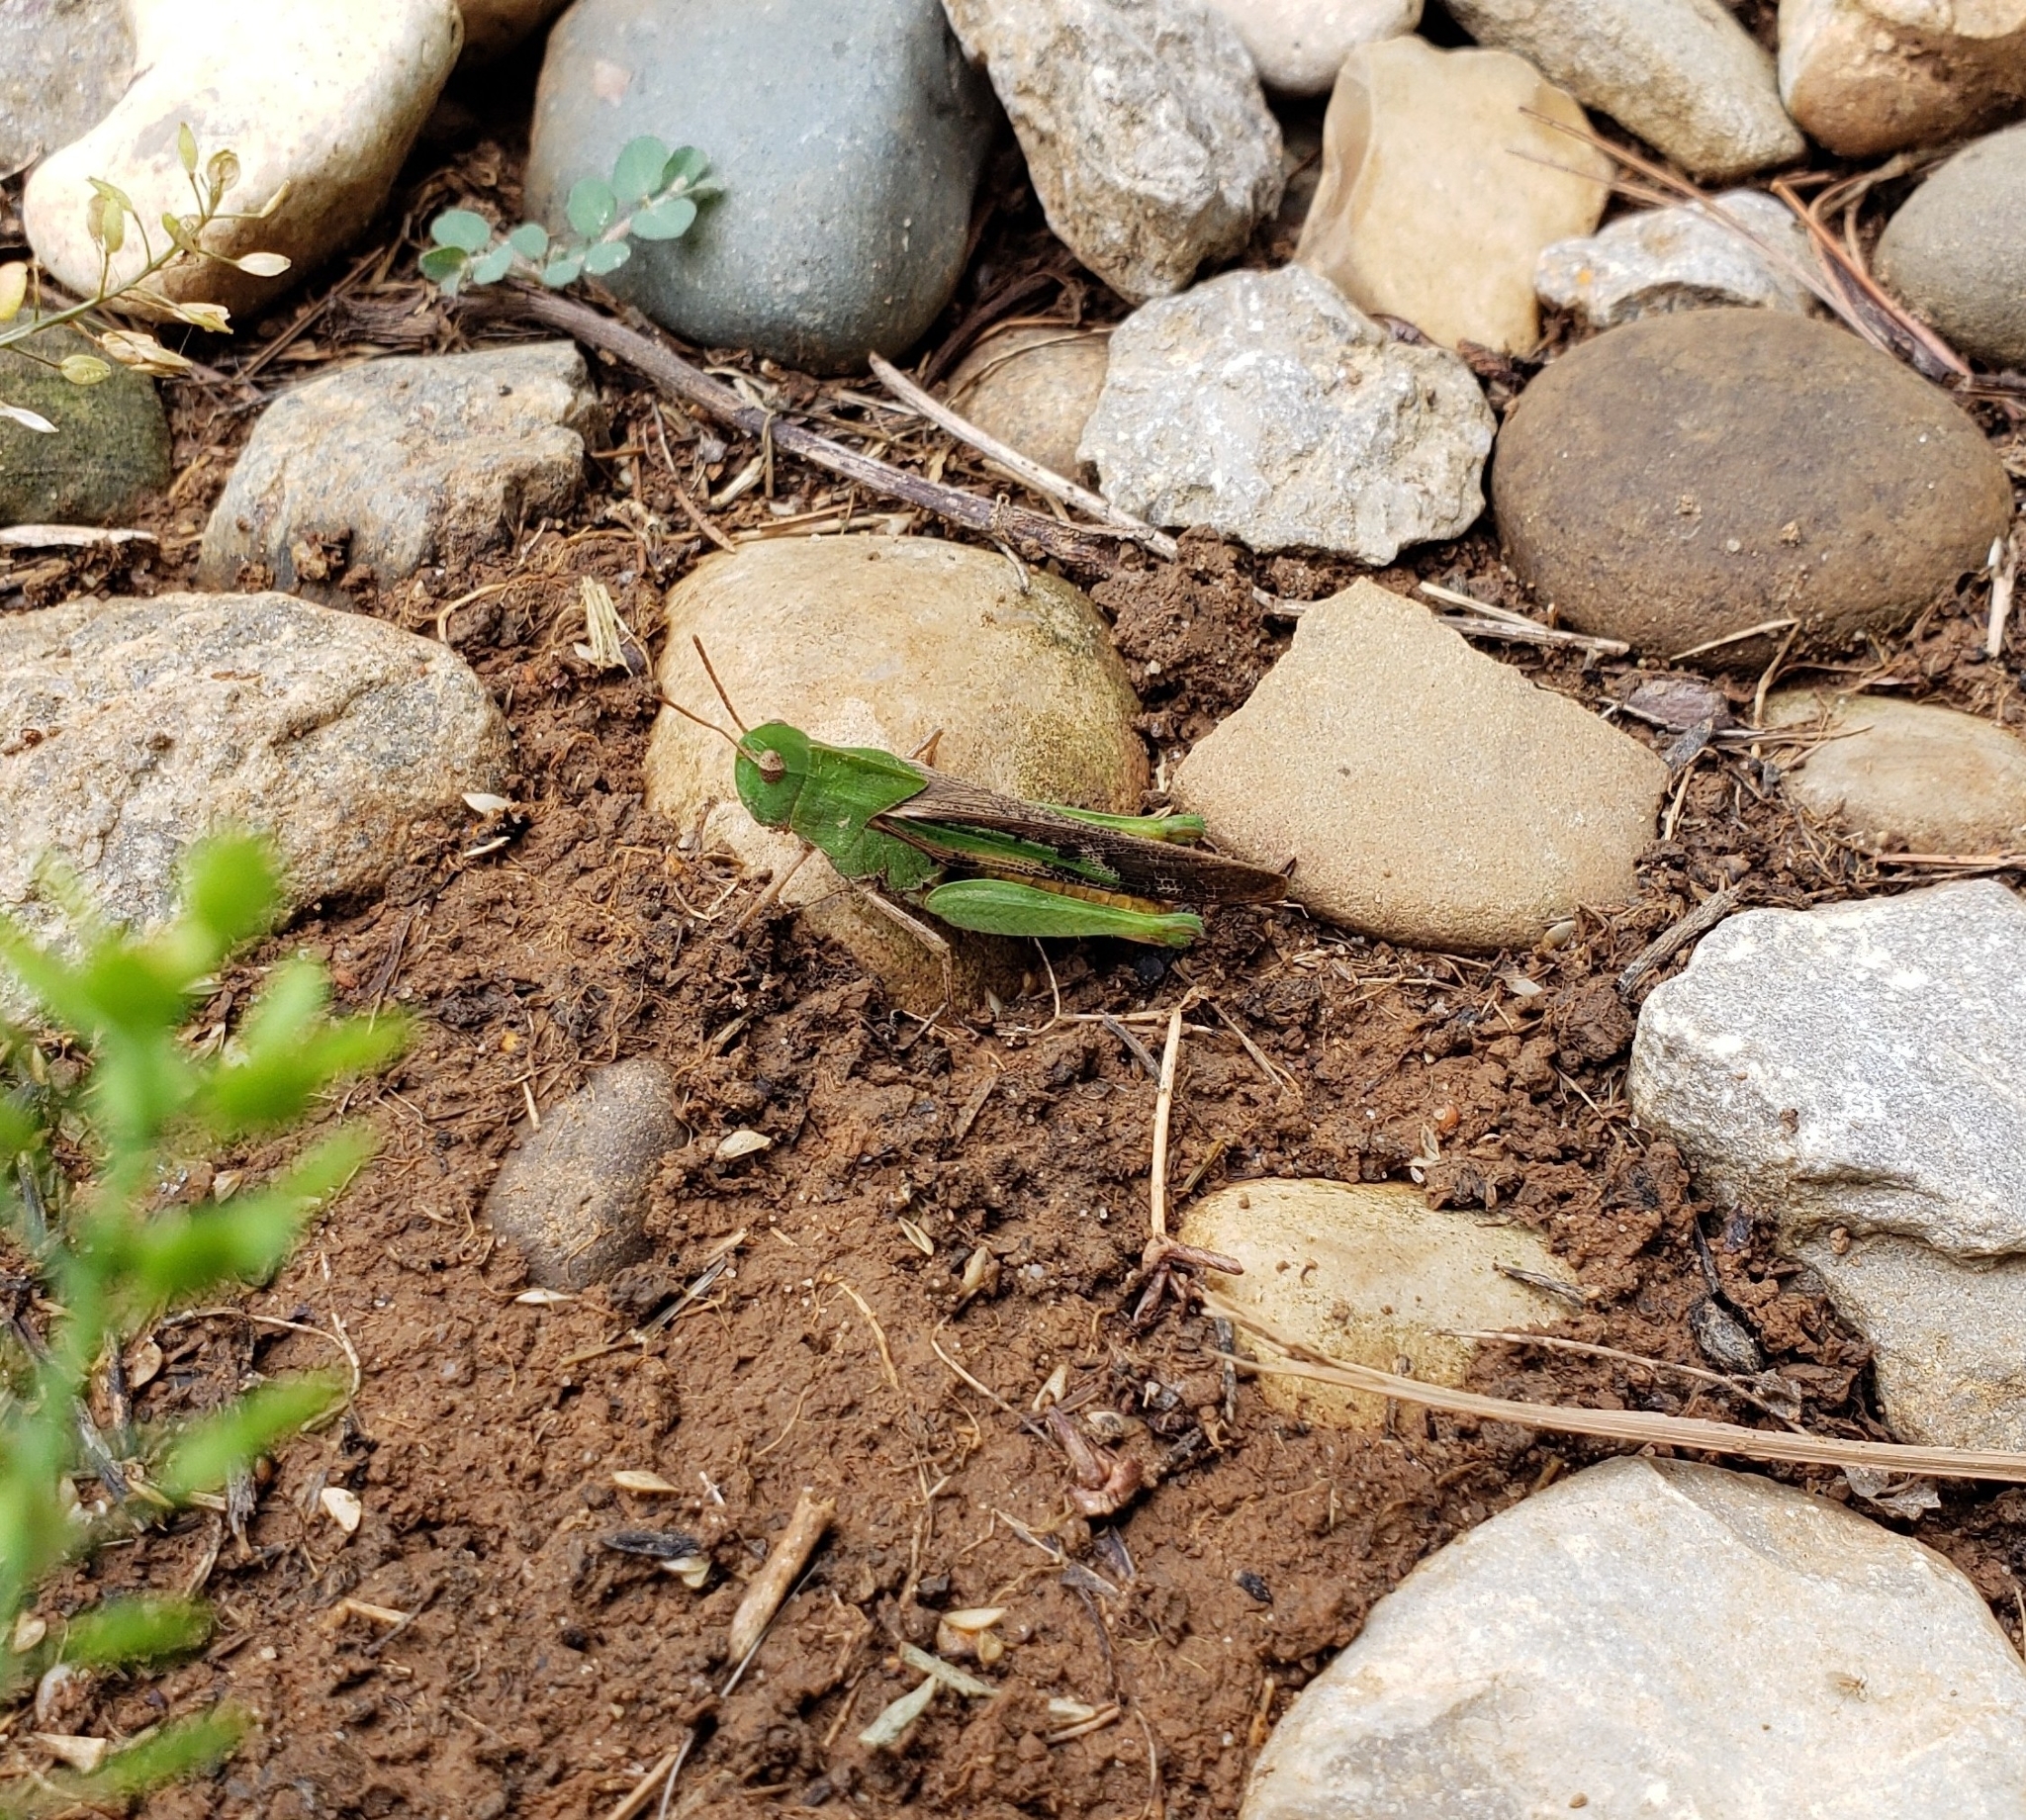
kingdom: Animalia
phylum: Arthropoda
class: Insecta
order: Orthoptera
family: Acrididae
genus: Chortophaga
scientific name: Chortophaga viridifasciata
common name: Green-striped grasshopper
